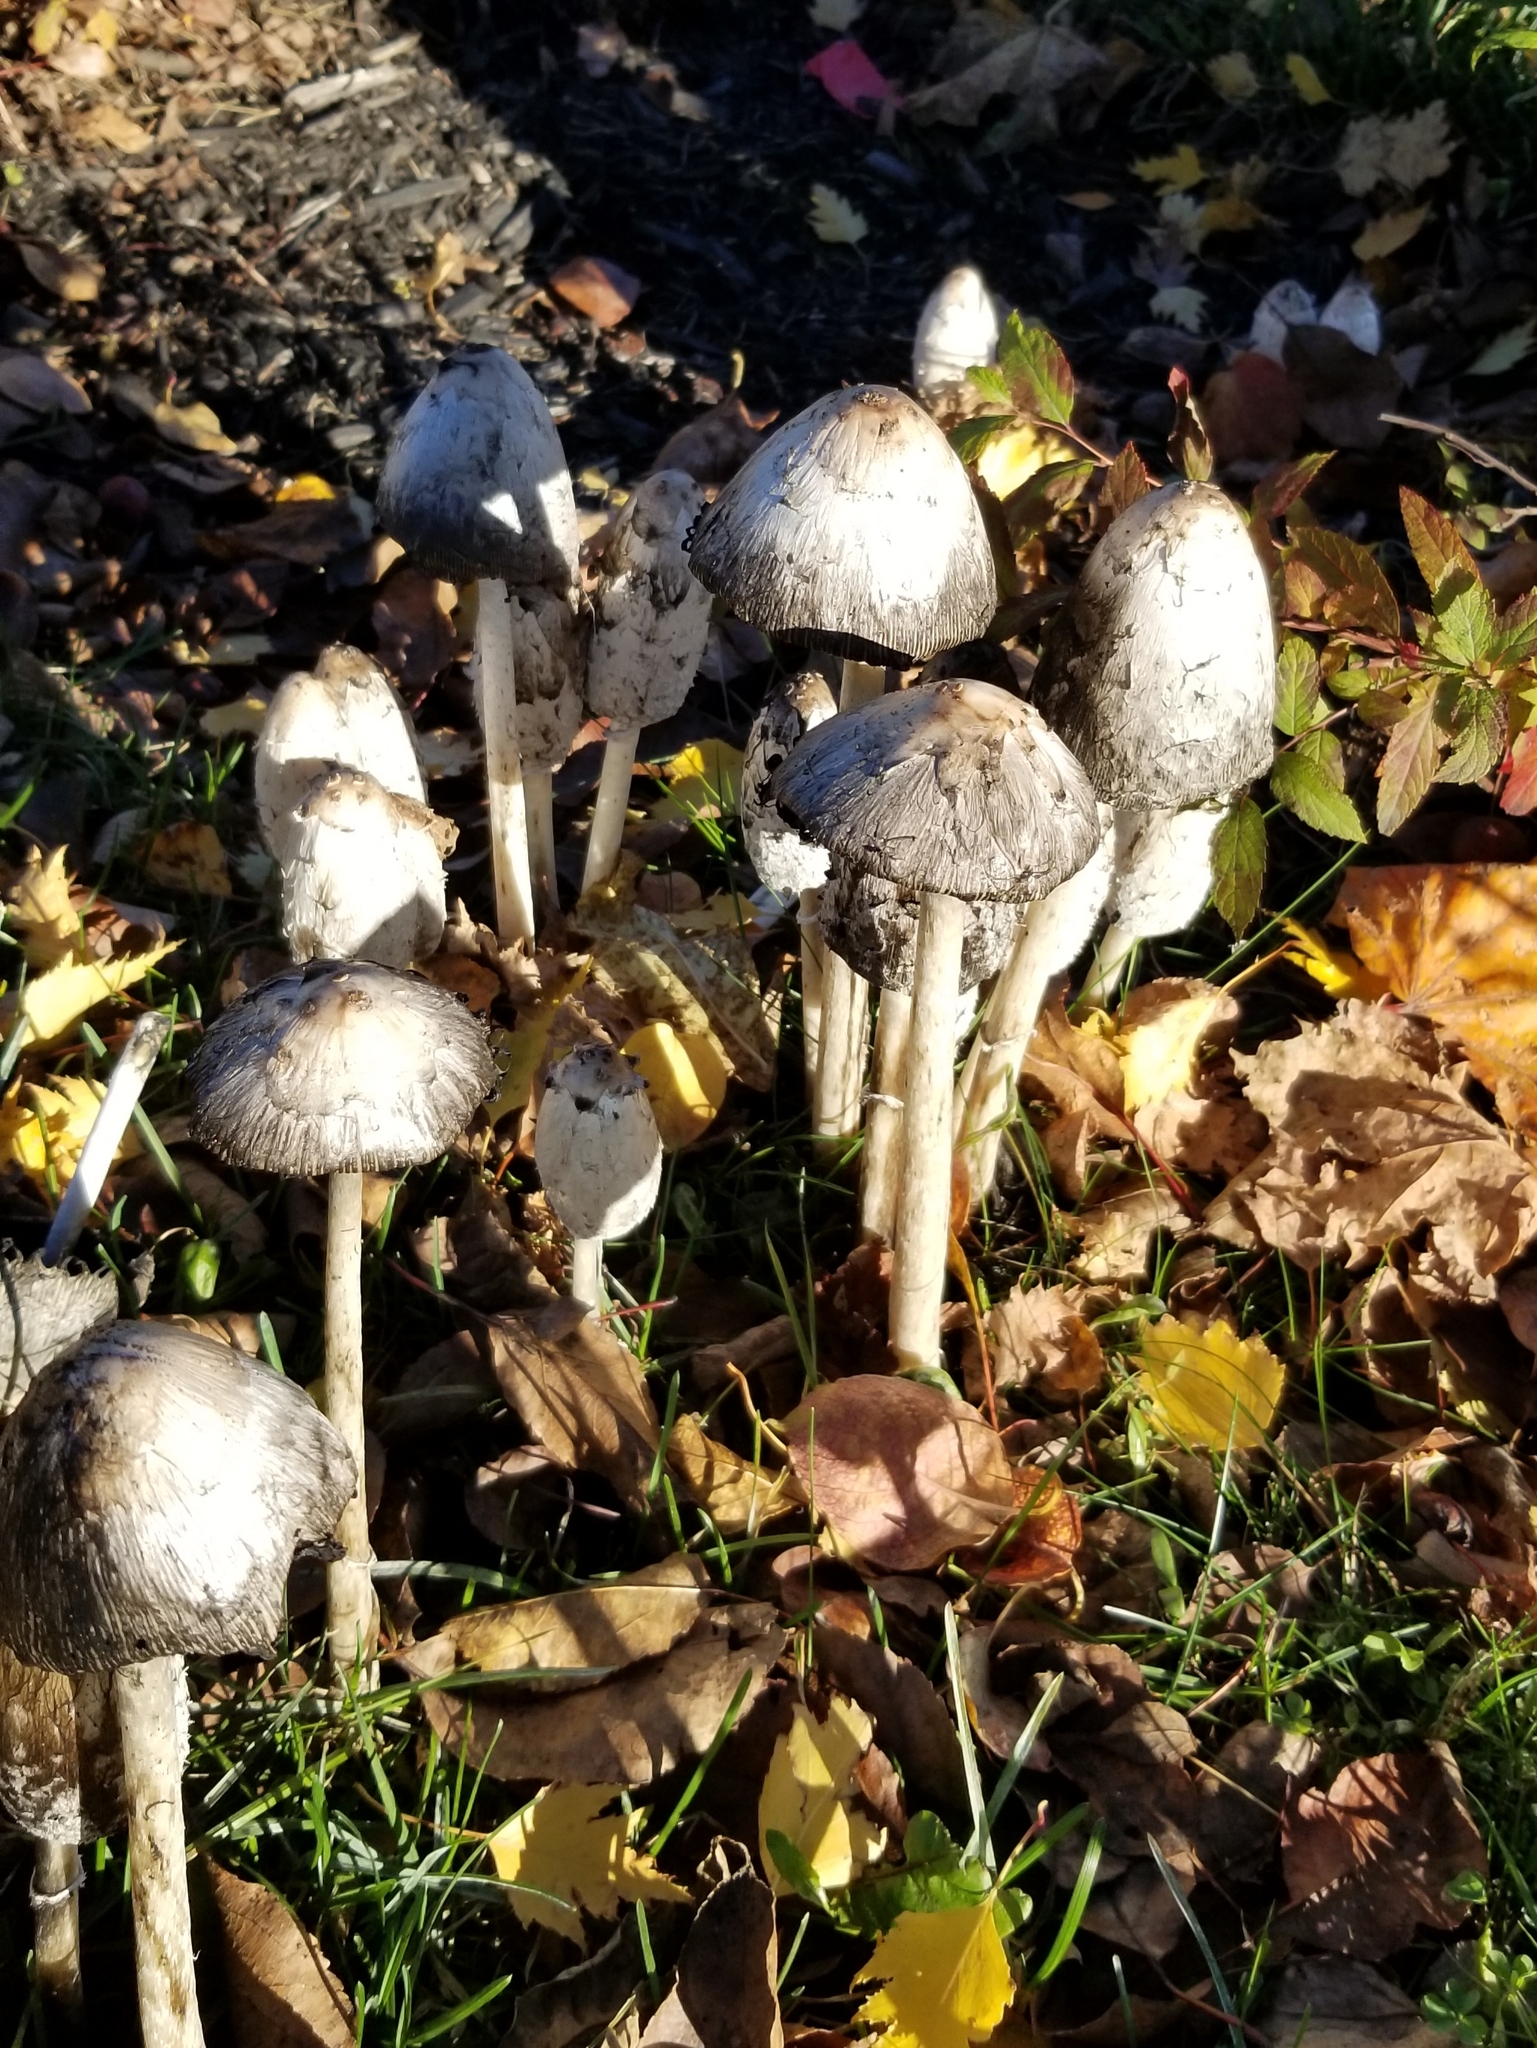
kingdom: Fungi
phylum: Basidiomycota
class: Agaricomycetes
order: Agaricales
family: Agaricaceae
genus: Coprinus
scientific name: Coprinus comatus
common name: Lawyer's wig
